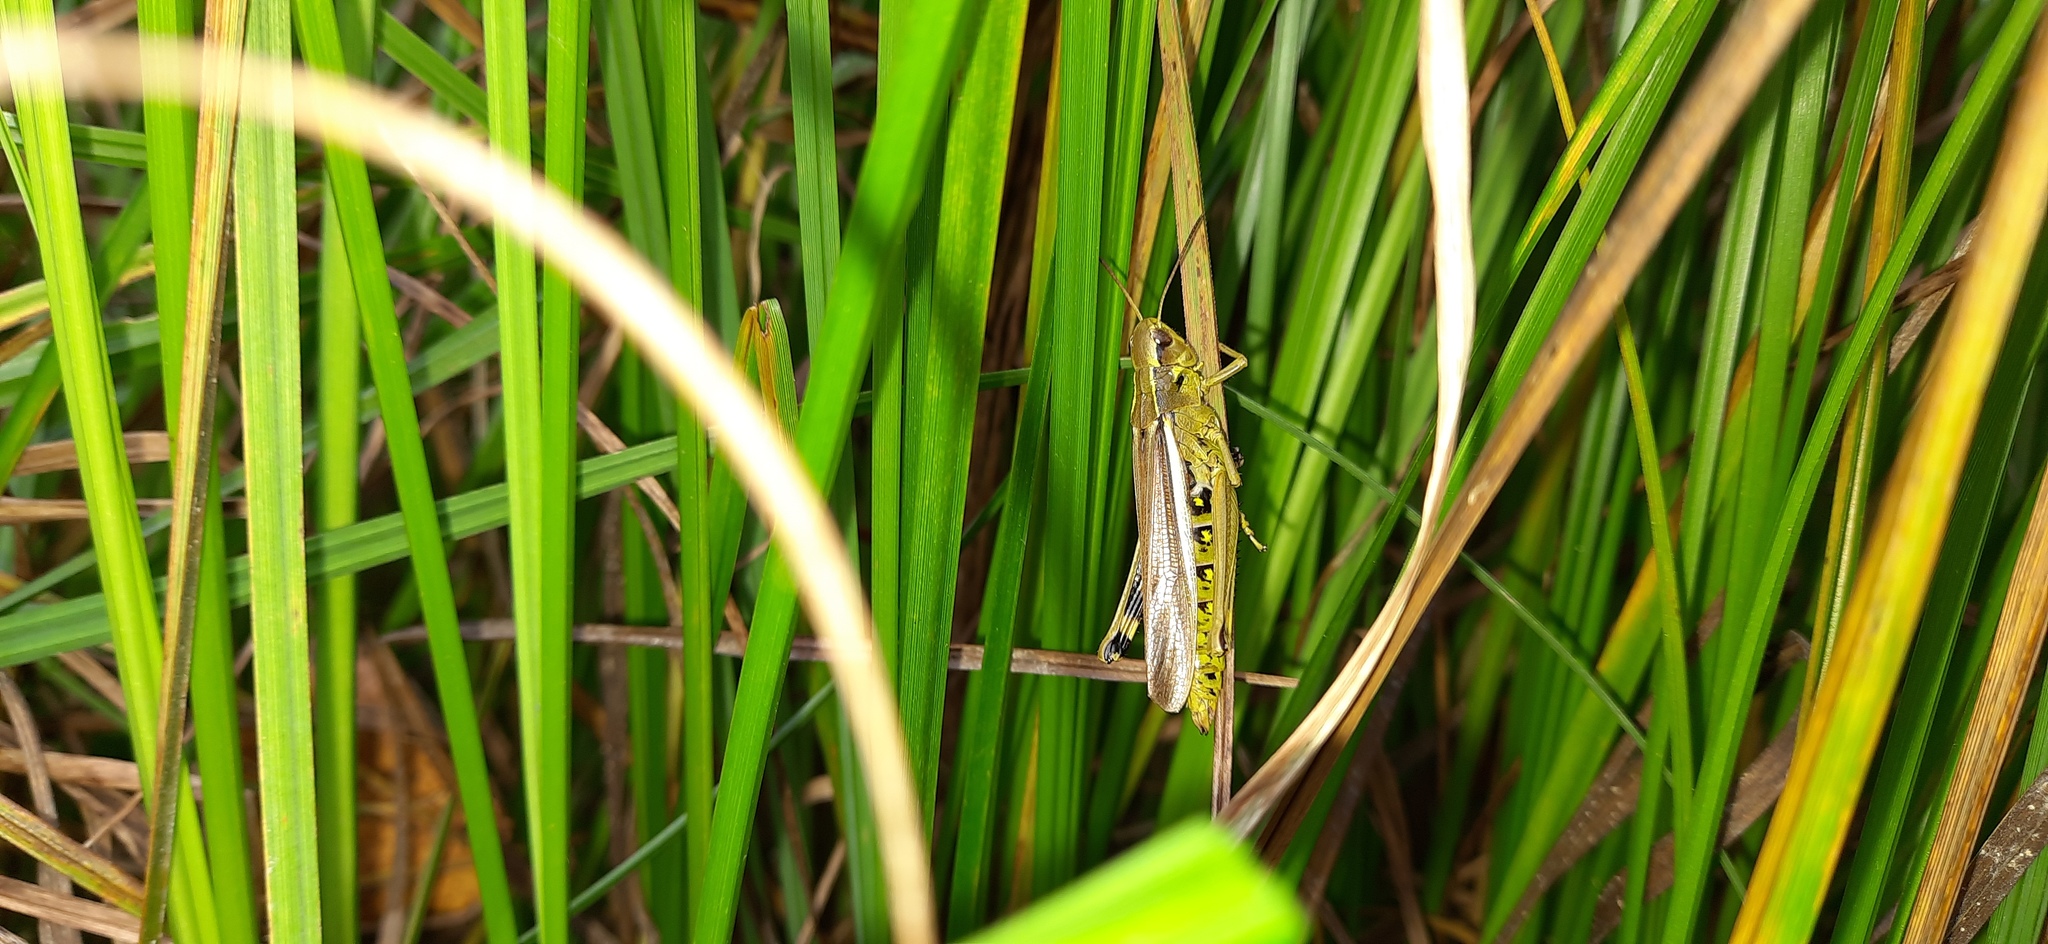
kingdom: Animalia
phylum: Arthropoda
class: Insecta
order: Orthoptera
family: Acrididae
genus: Stethophyma
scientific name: Stethophyma grossum
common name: Large marsh grasshopper
